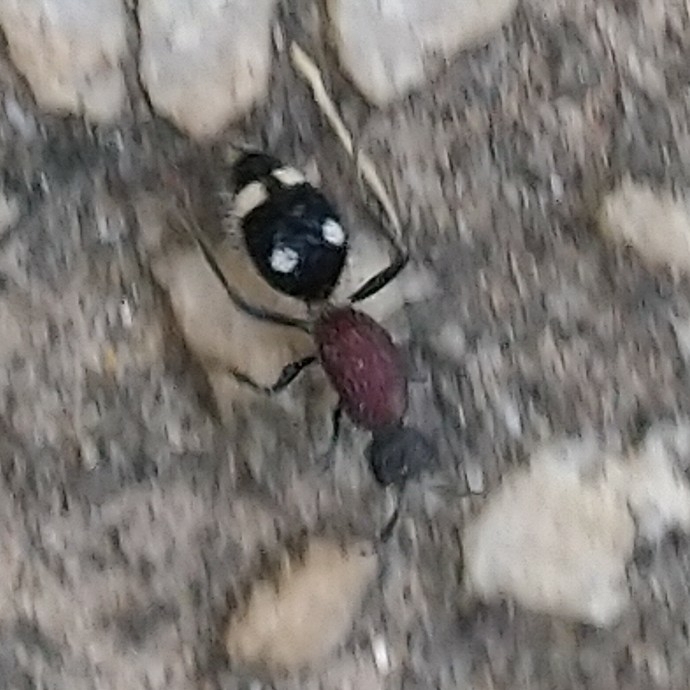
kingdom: Animalia
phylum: Arthropoda
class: Insecta
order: Hymenoptera
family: Mutillidae
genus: Dolichomutilla
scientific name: Dolichomutilla
